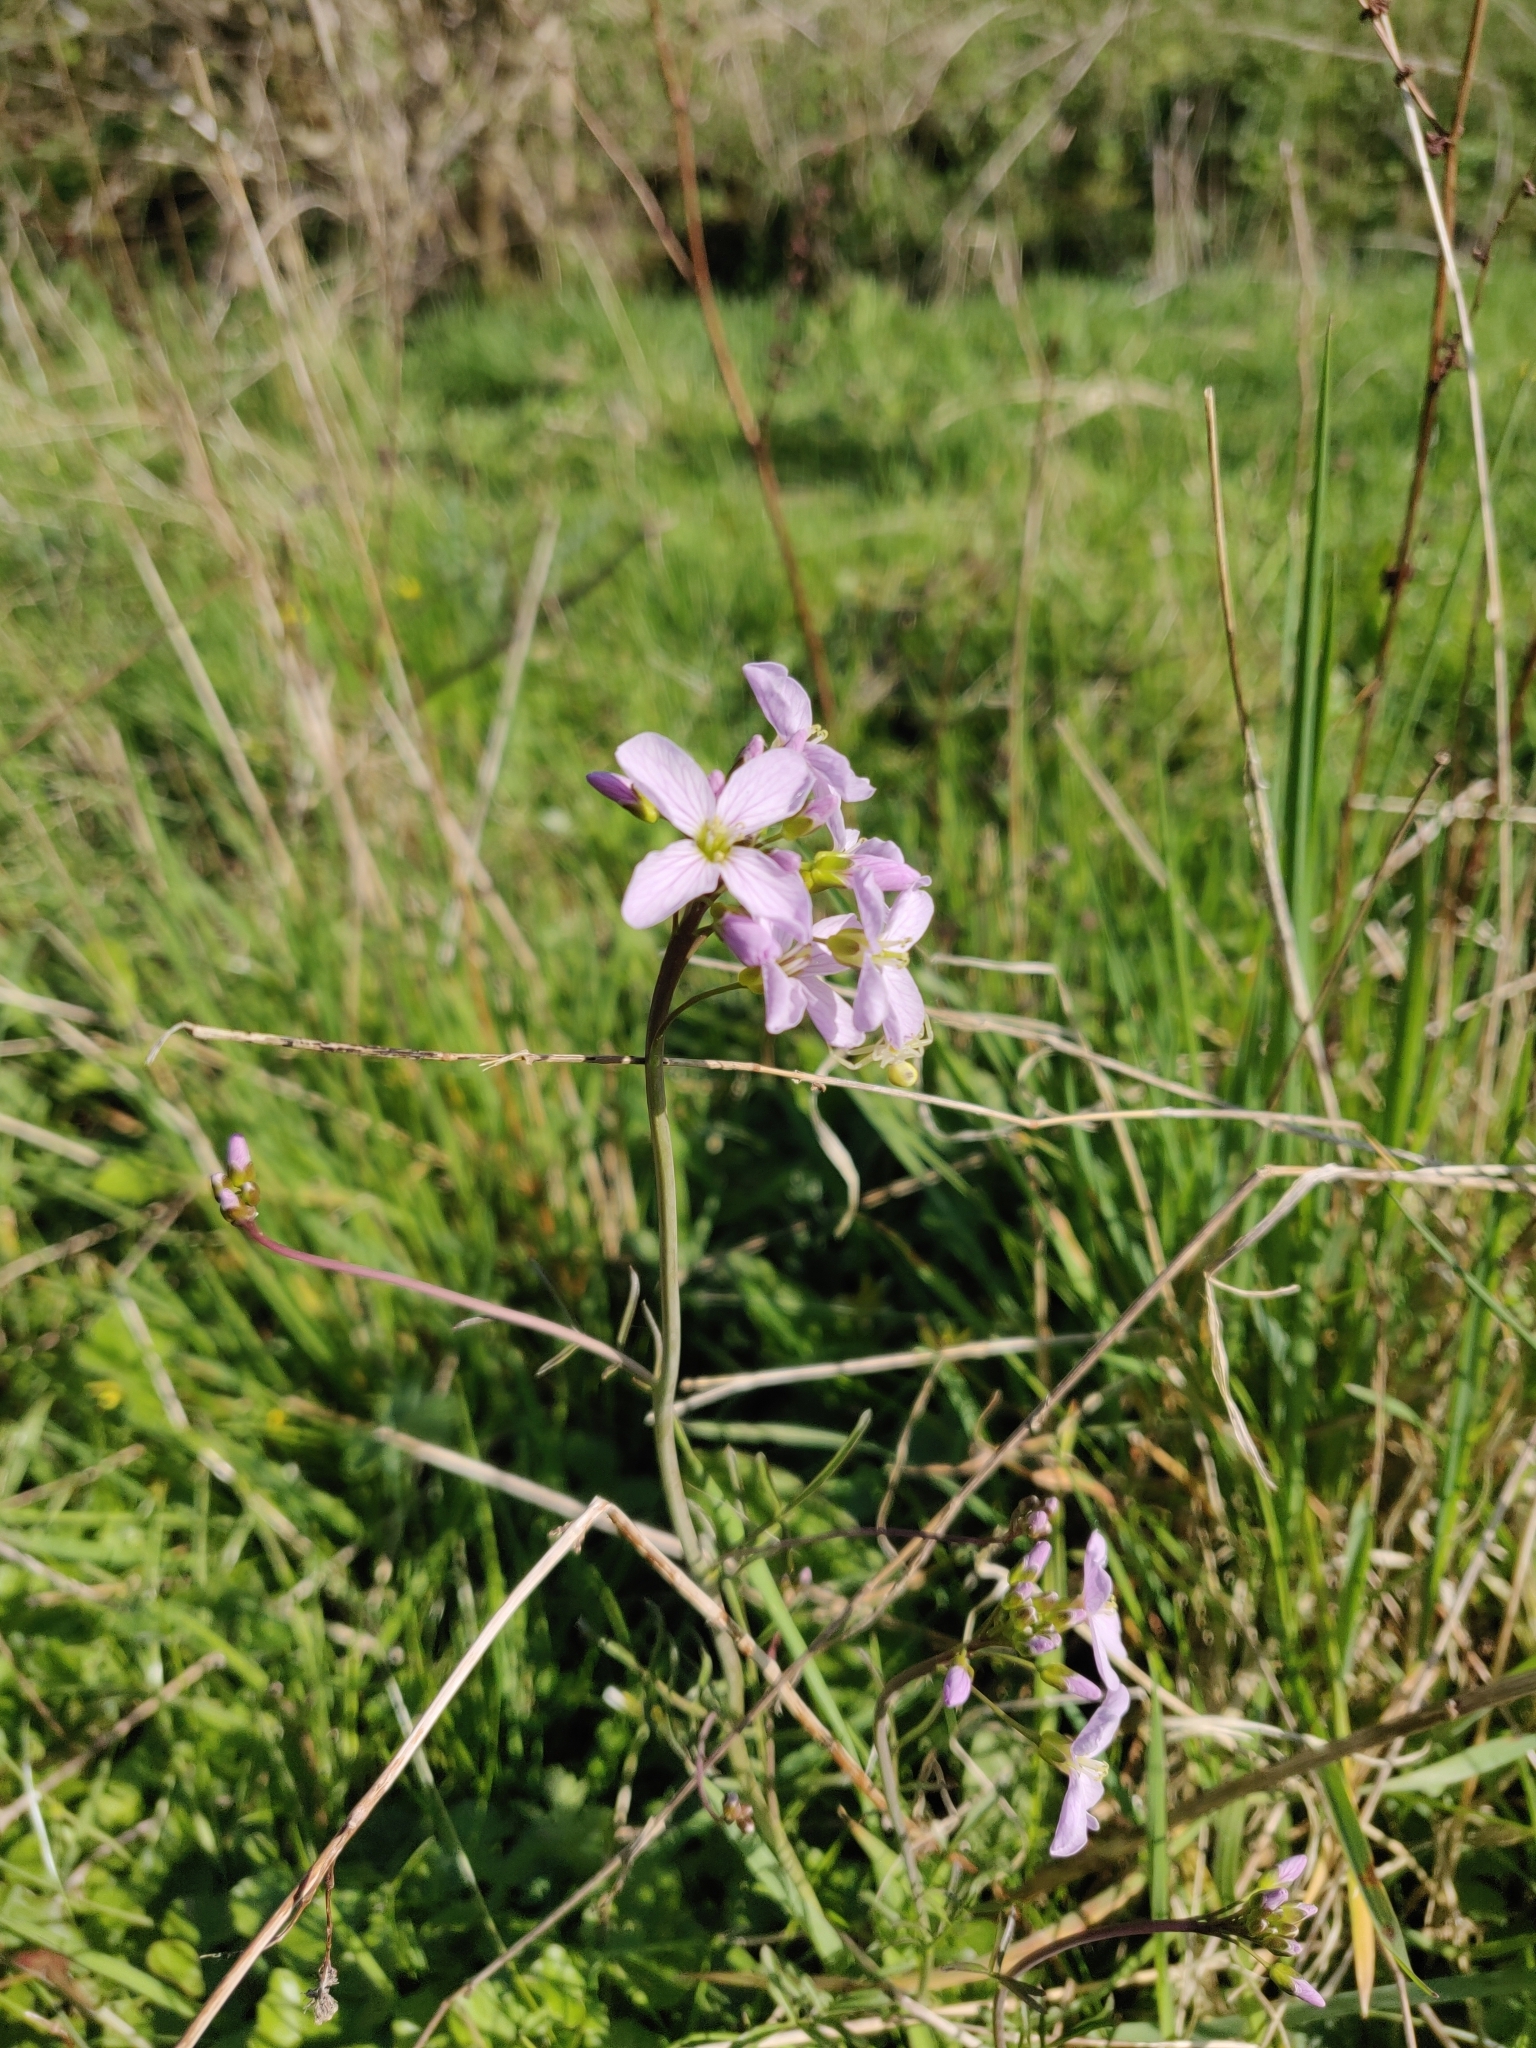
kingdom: Plantae
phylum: Tracheophyta
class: Magnoliopsida
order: Brassicales
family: Brassicaceae
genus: Cardamine
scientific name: Cardamine pratensis
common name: Cuckoo flower
